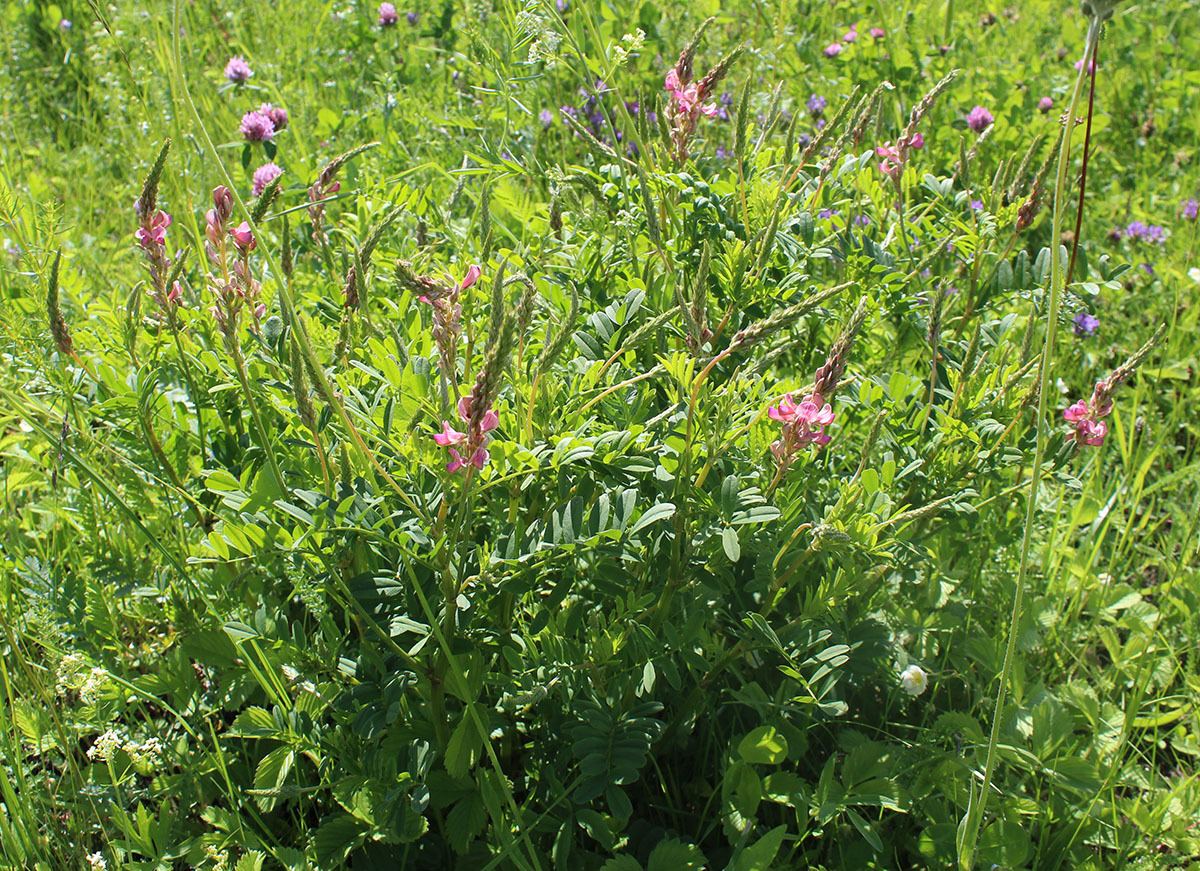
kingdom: Plantae
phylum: Tracheophyta
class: Magnoliopsida
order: Fabales
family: Fabaceae
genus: Onobrychis
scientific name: Onobrychis viciifolia
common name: Sainfoin
